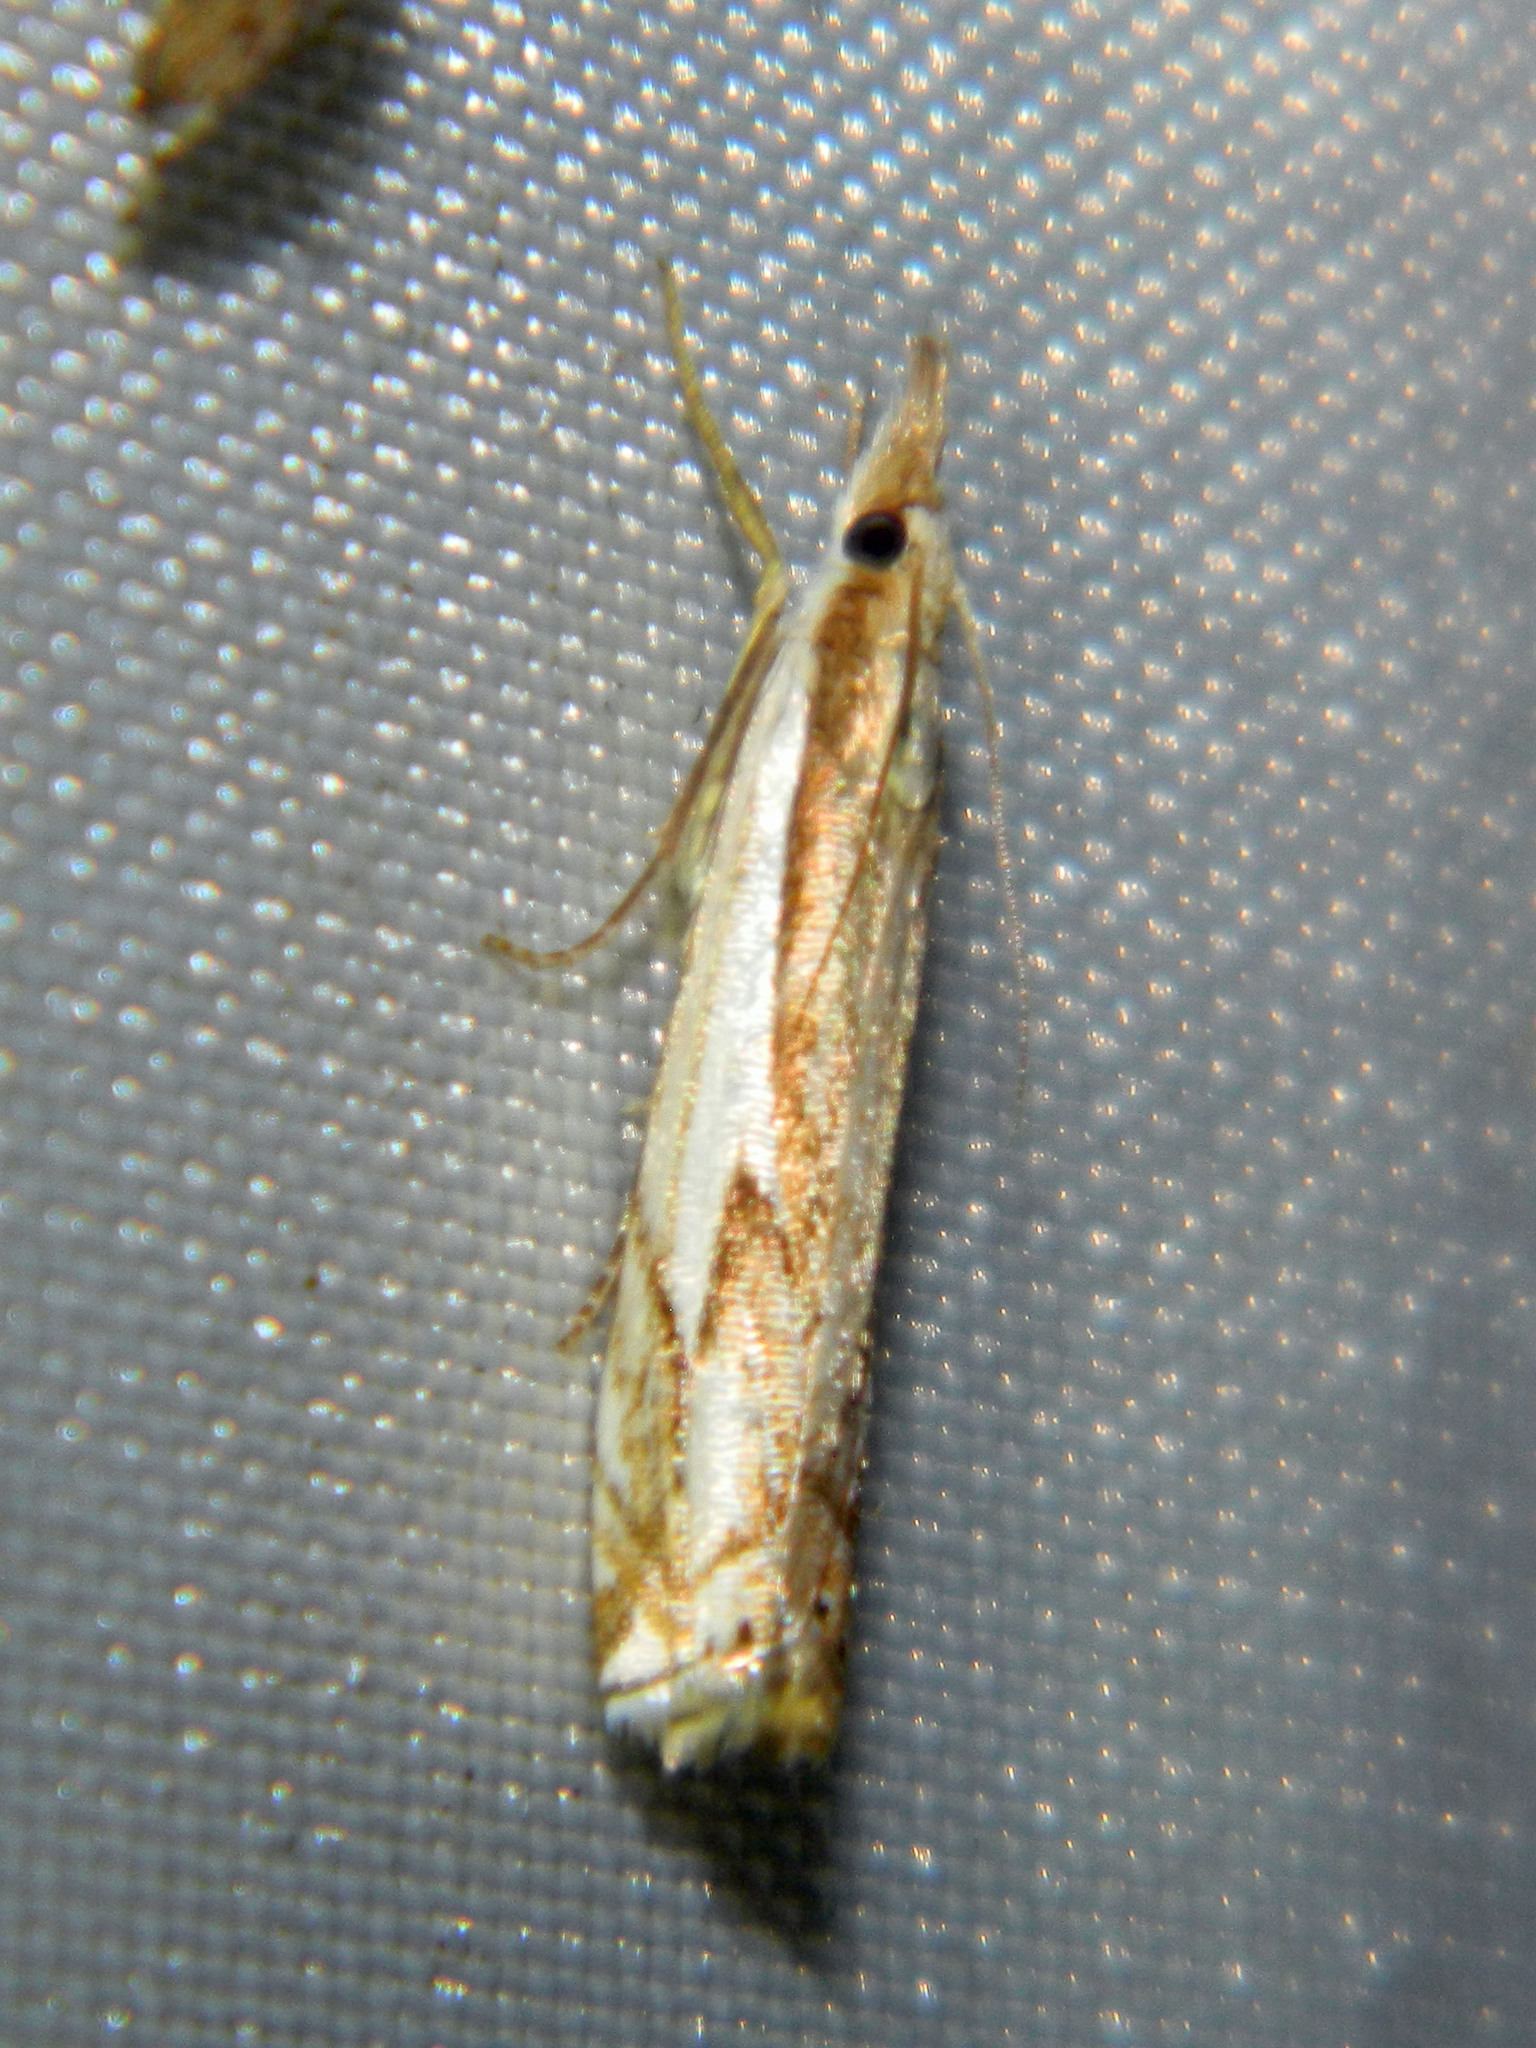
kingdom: Animalia
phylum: Arthropoda
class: Insecta
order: Lepidoptera
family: Crambidae
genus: Crambus
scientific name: Crambus agitatellus
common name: Double-banded grass-veneer
